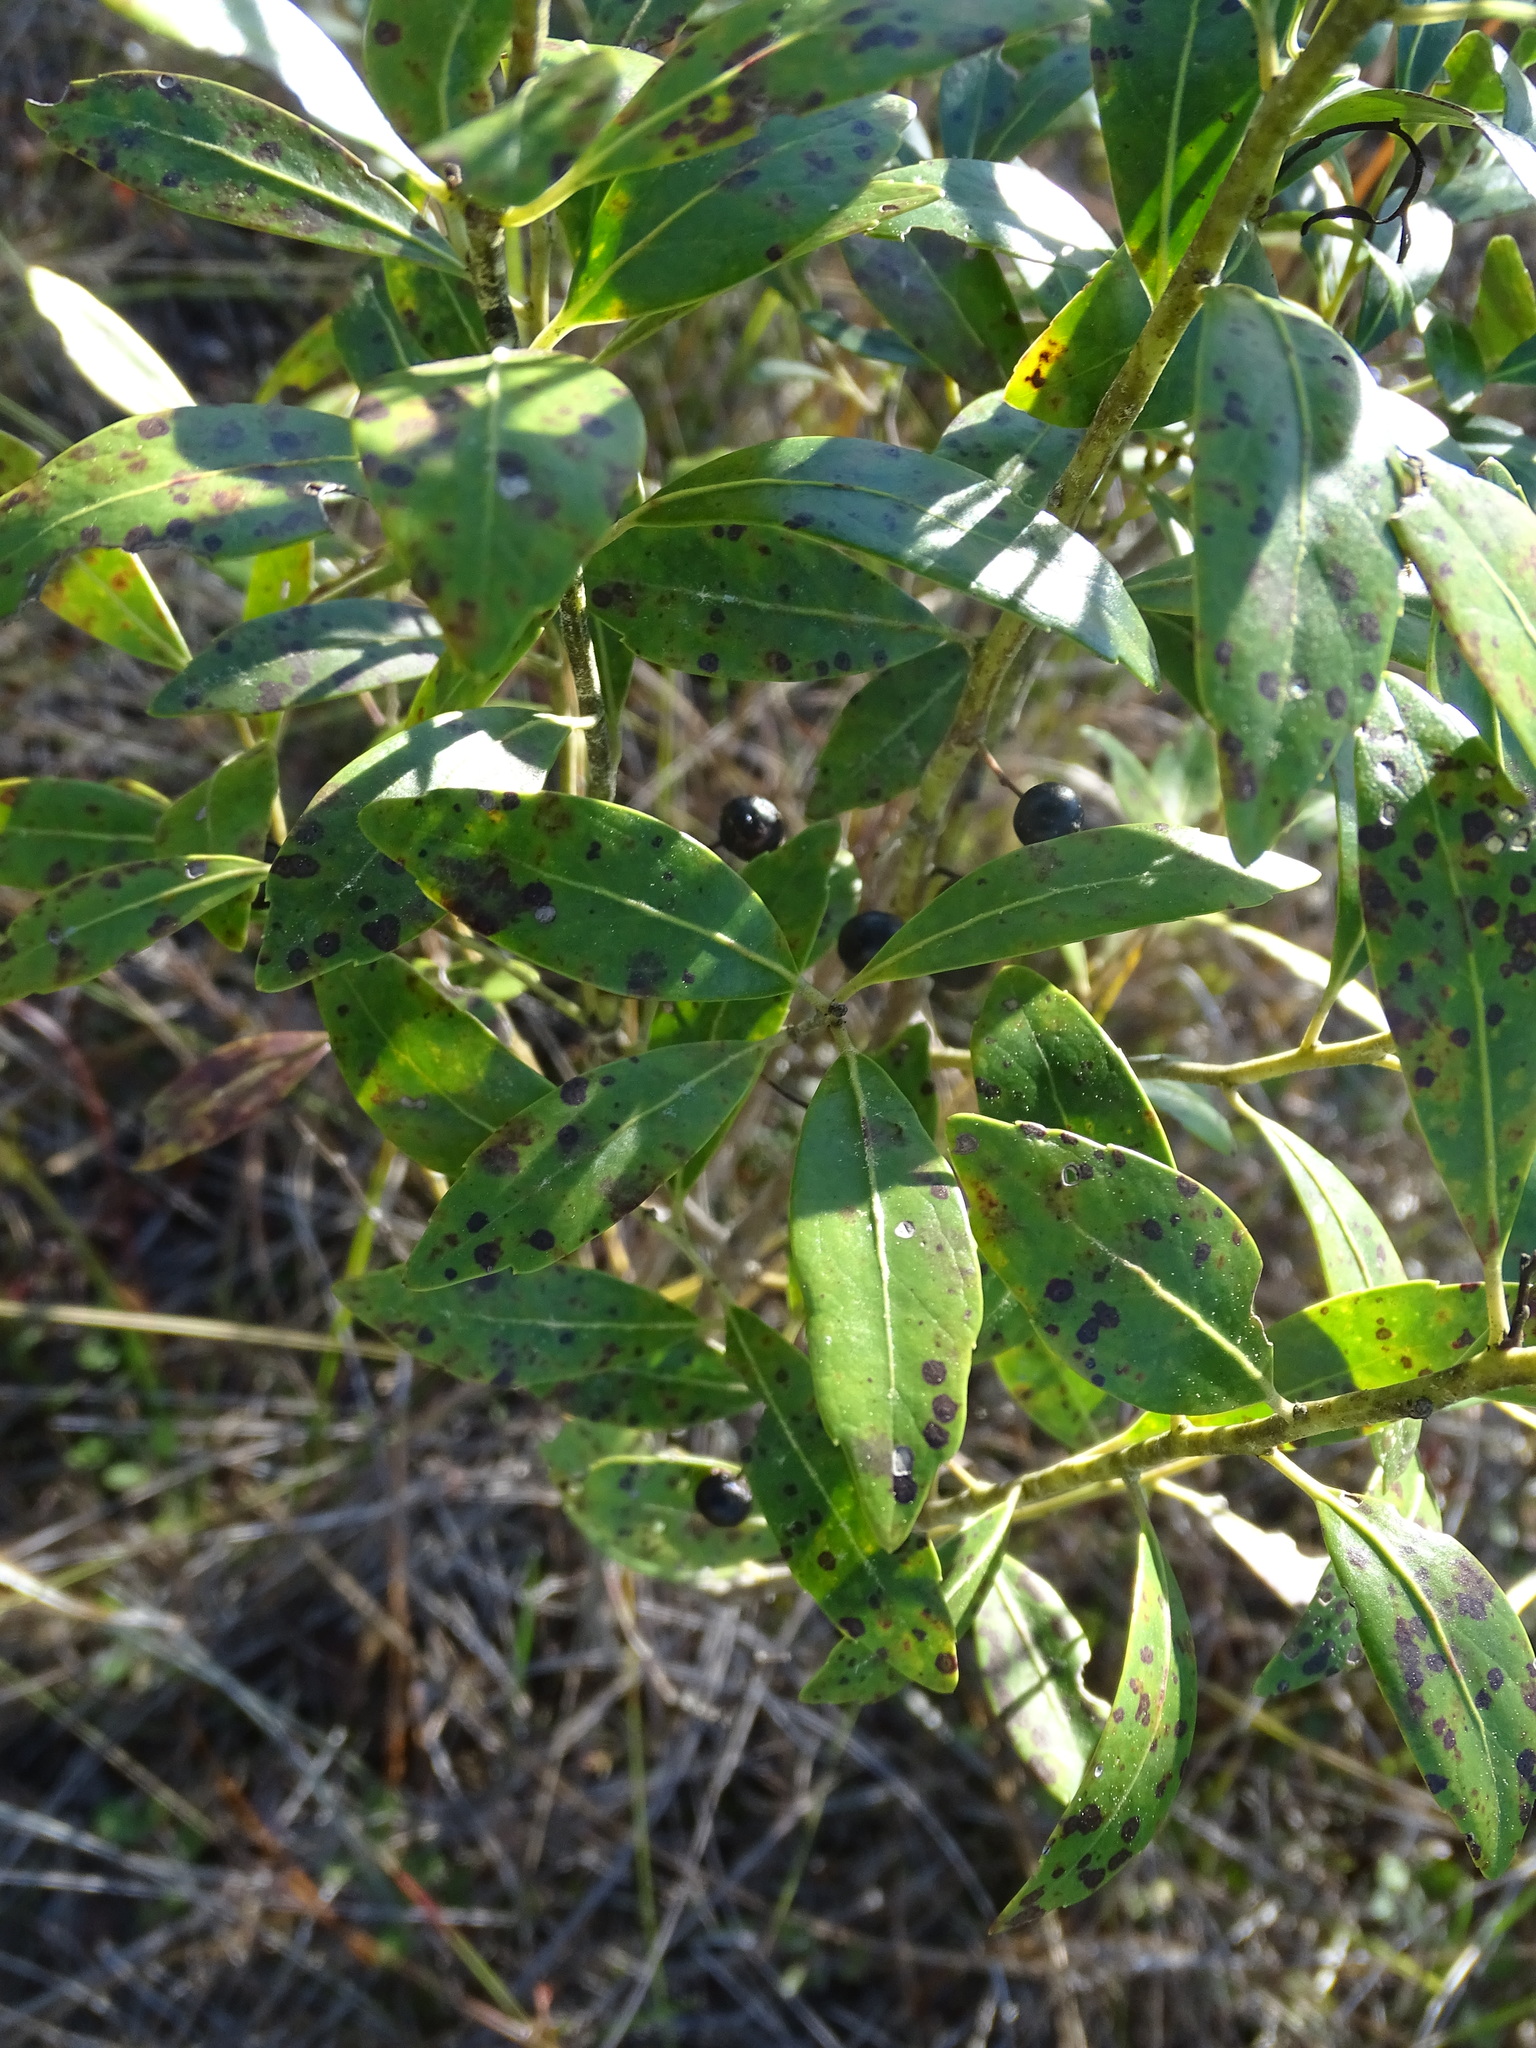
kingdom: Plantae
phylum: Tracheophyta
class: Magnoliopsida
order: Aquifoliales
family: Aquifoliaceae
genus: Ilex
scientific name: Ilex glabra
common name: Bitter gallberry
